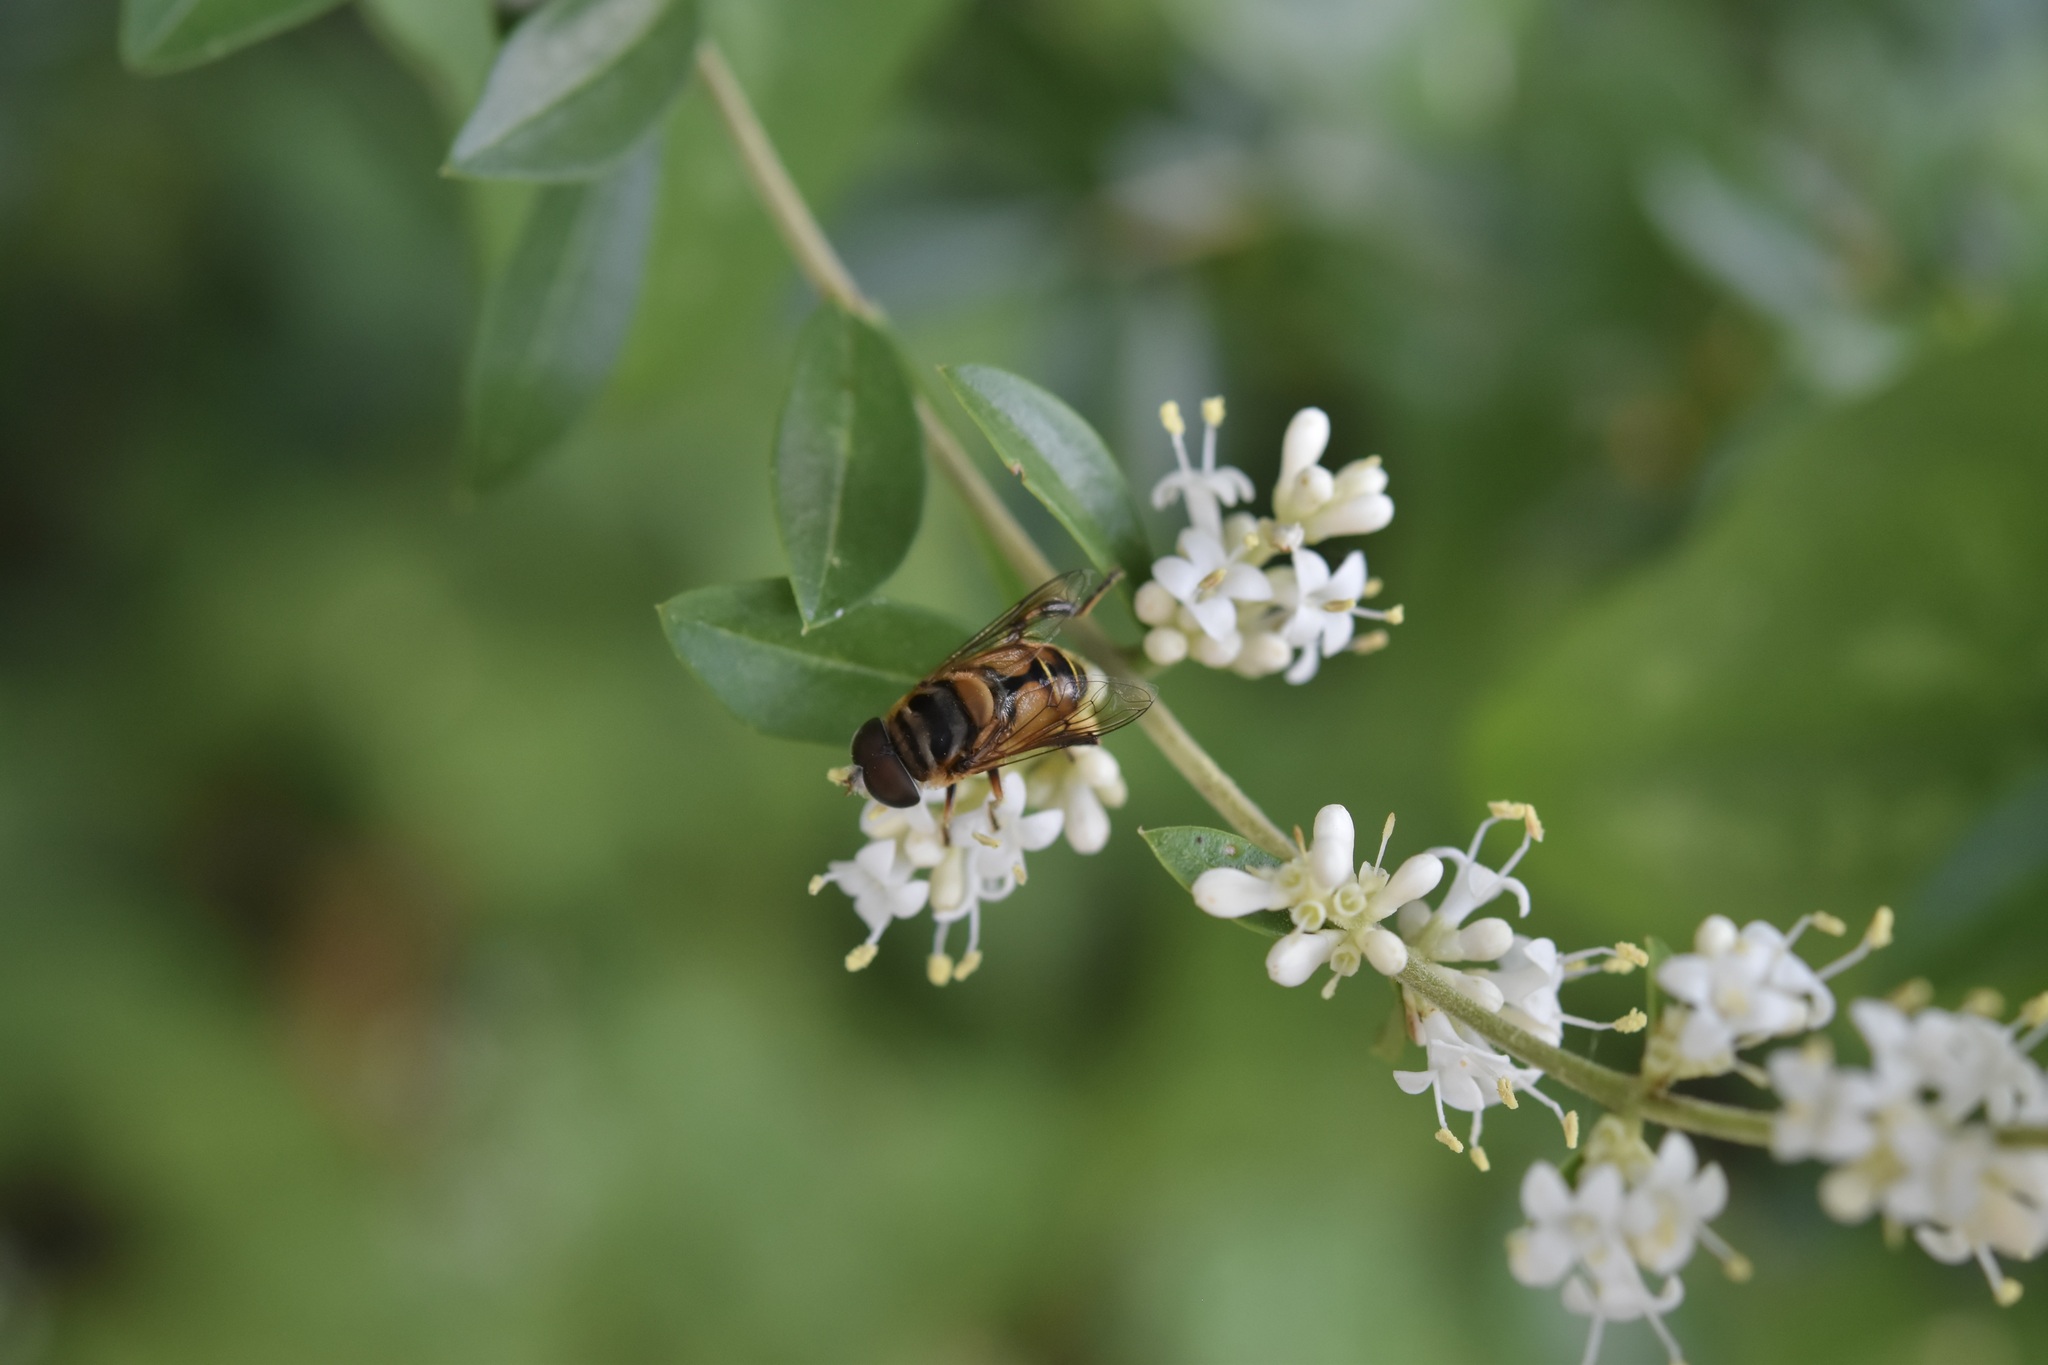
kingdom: Animalia
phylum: Arthropoda
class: Insecta
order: Diptera
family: Syrphidae
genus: Palpada
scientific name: Palpada vinetorum
